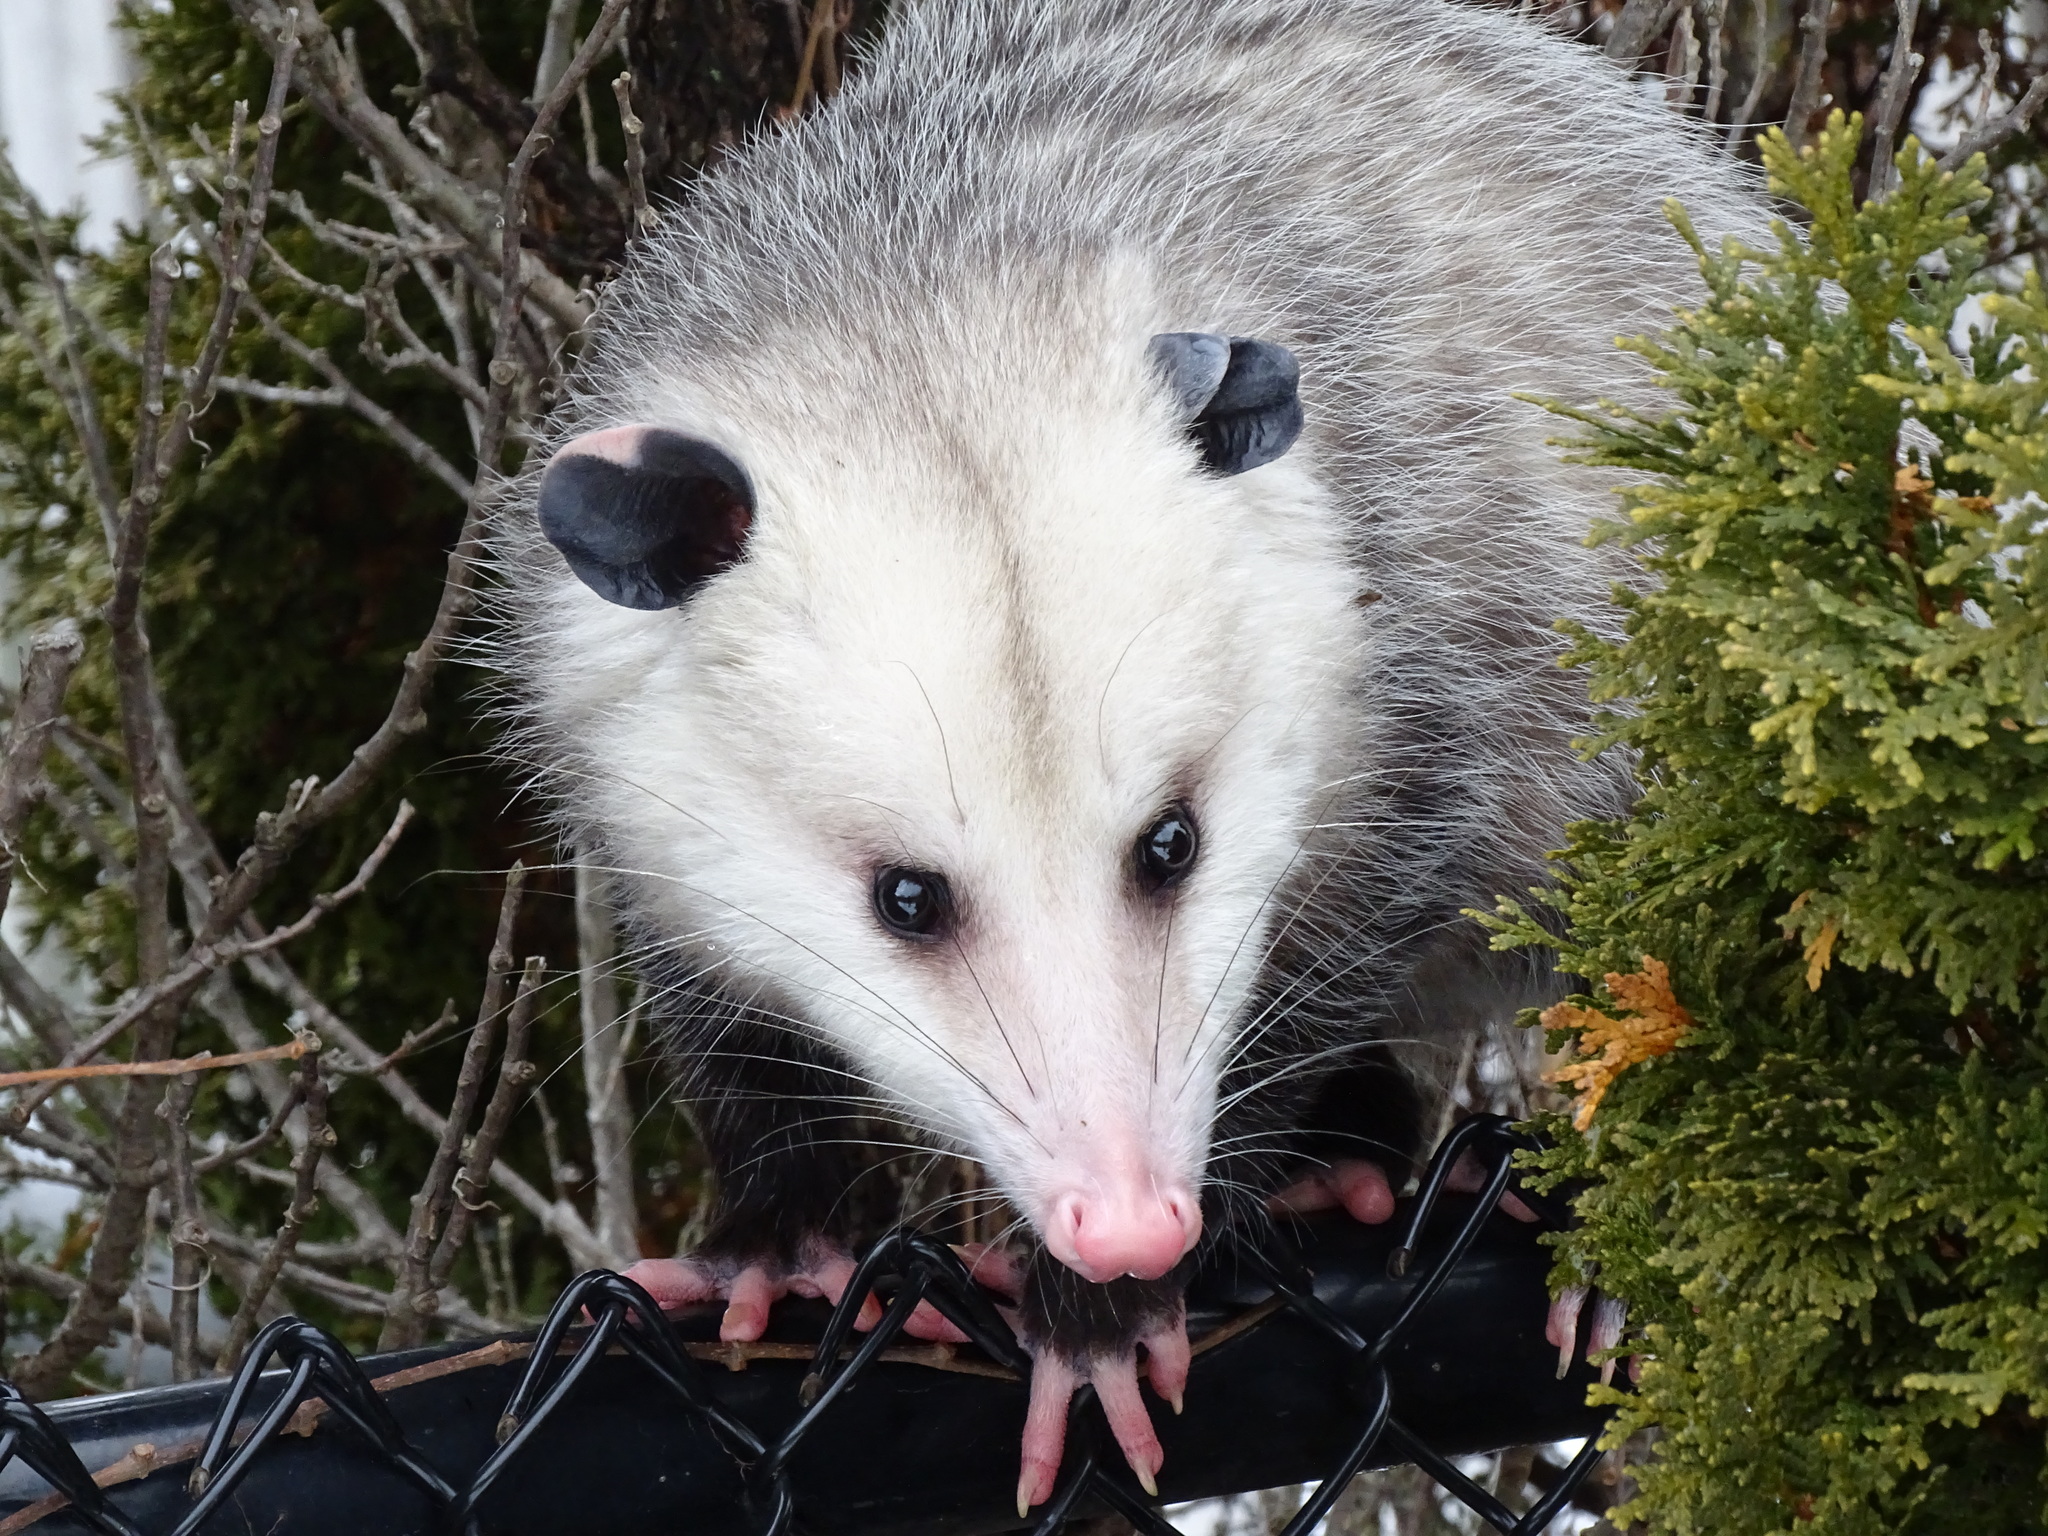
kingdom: Animalia
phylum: Chordata
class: Mammalia
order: Didelphimorphia
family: Didelphidae
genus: Didelphis
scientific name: Didelphis virginiana
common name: Virginia opossum
